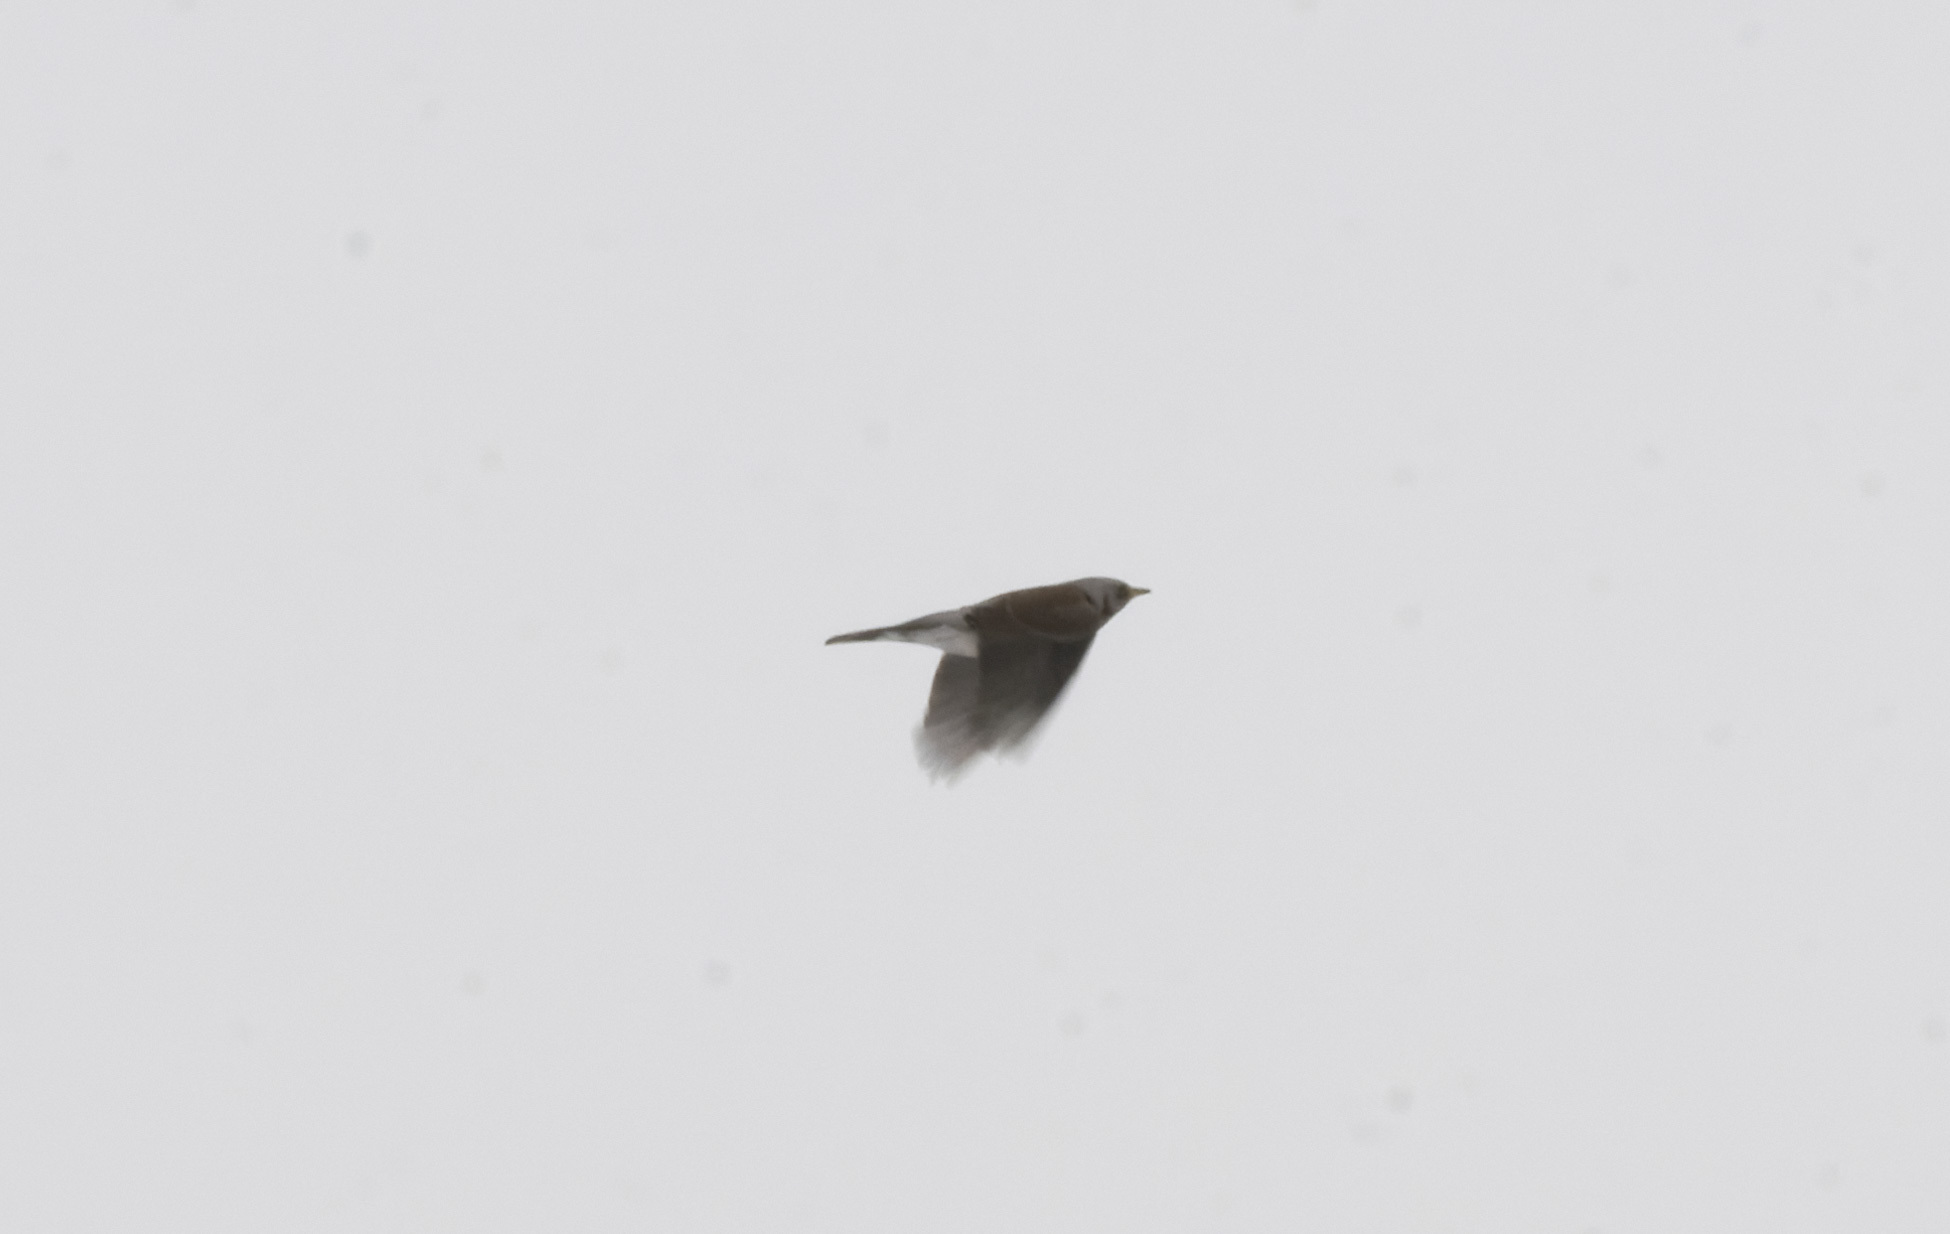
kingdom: Animalia
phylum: Chordata
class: Aves
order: Passeriformes
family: Turdidae
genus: Turdus
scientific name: Turdus pilaris
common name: Fieldfare
